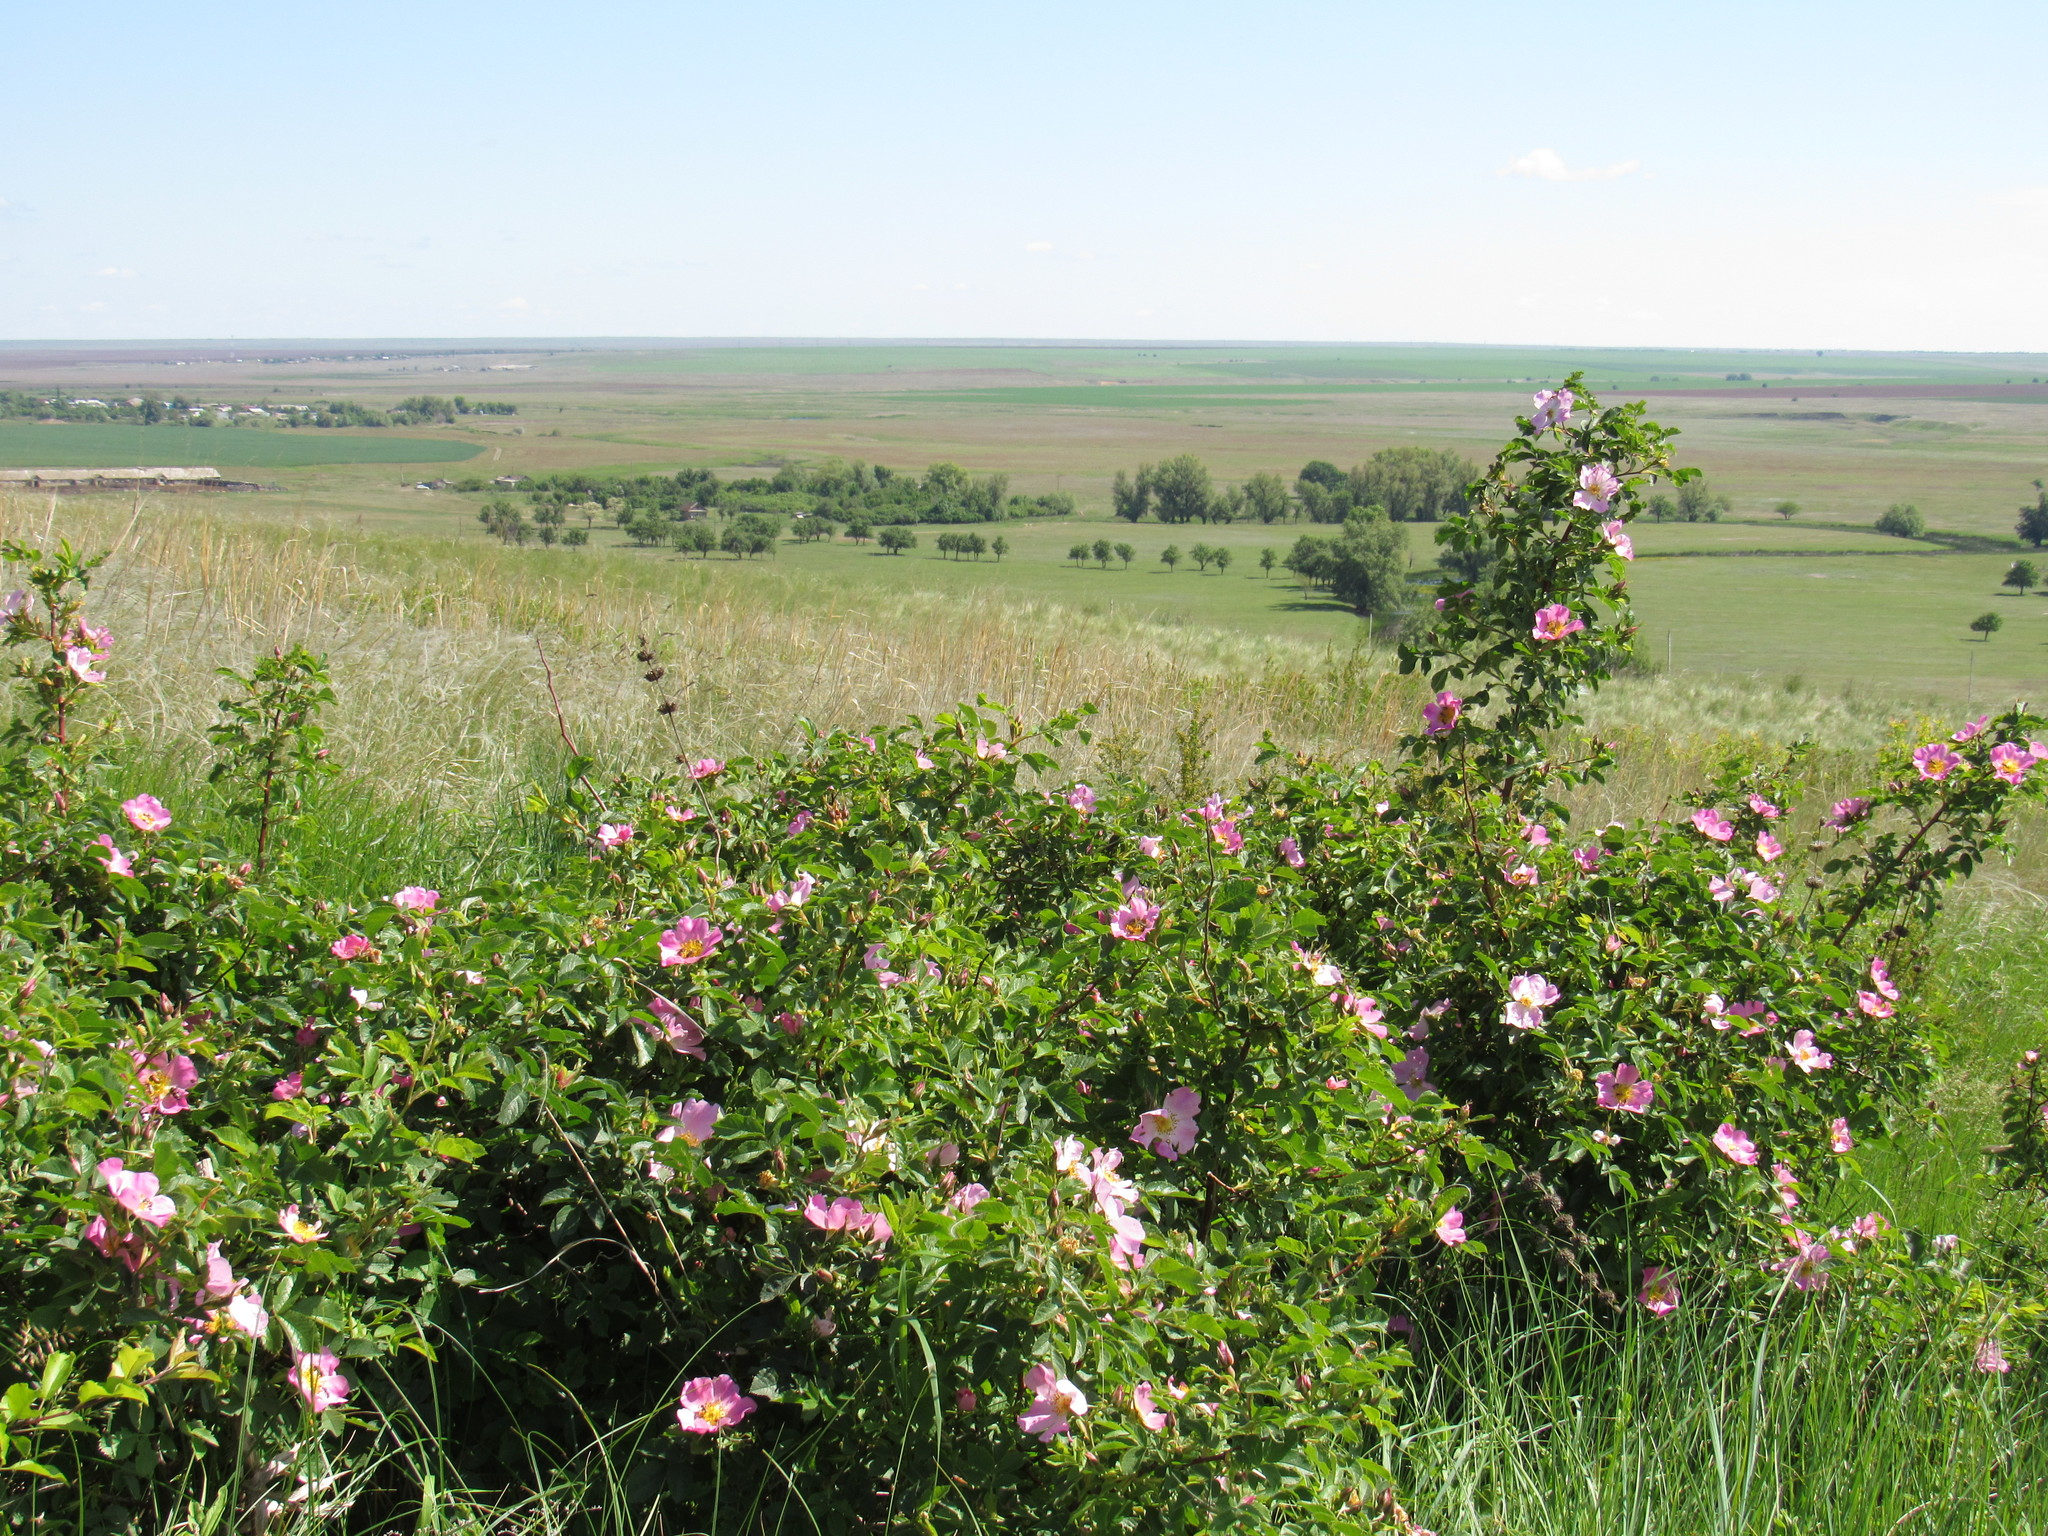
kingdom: Plantae
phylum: Tracheophyta
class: Magnoliopsida
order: Rosales
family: Rosaceae
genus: Rosa
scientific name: Rosa
